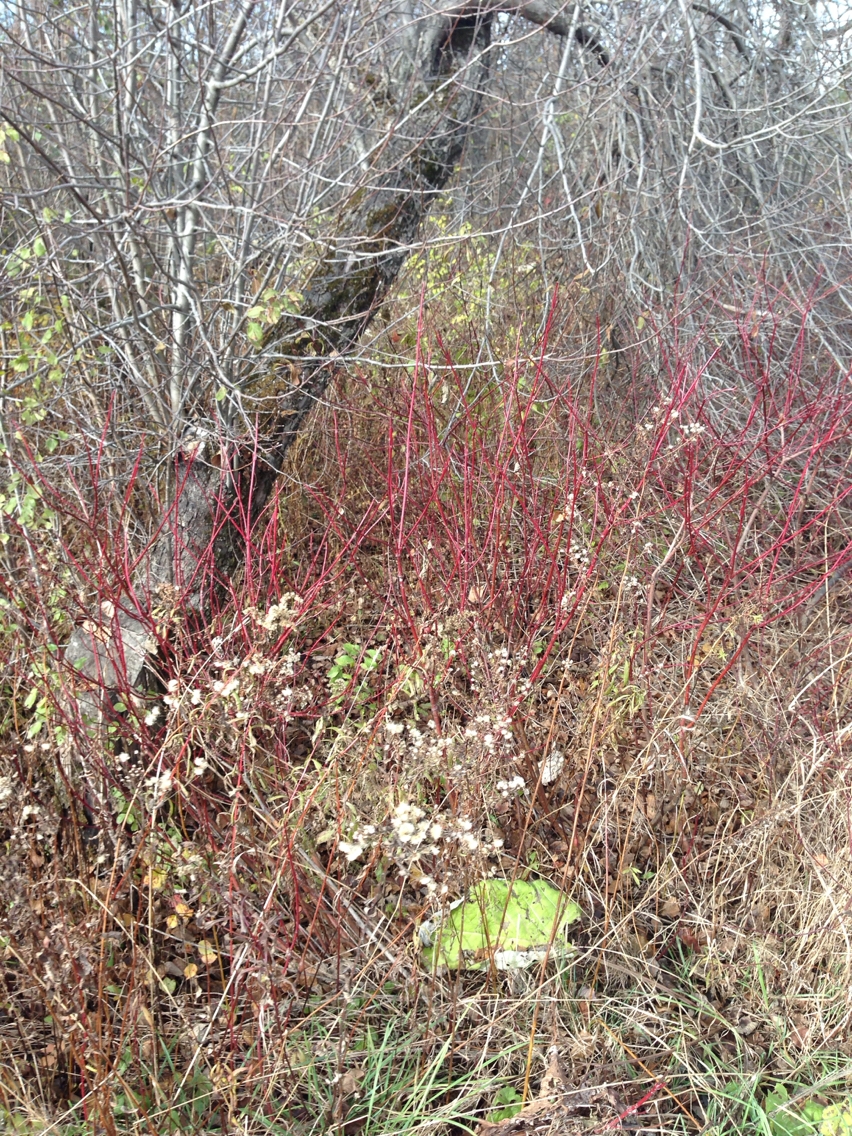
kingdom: Plantae
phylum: Tracheophyta
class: Magnoliopsida
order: Cornales
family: Cornaceae
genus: Cornus
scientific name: Cornus sericea
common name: Red-osier dogwood
